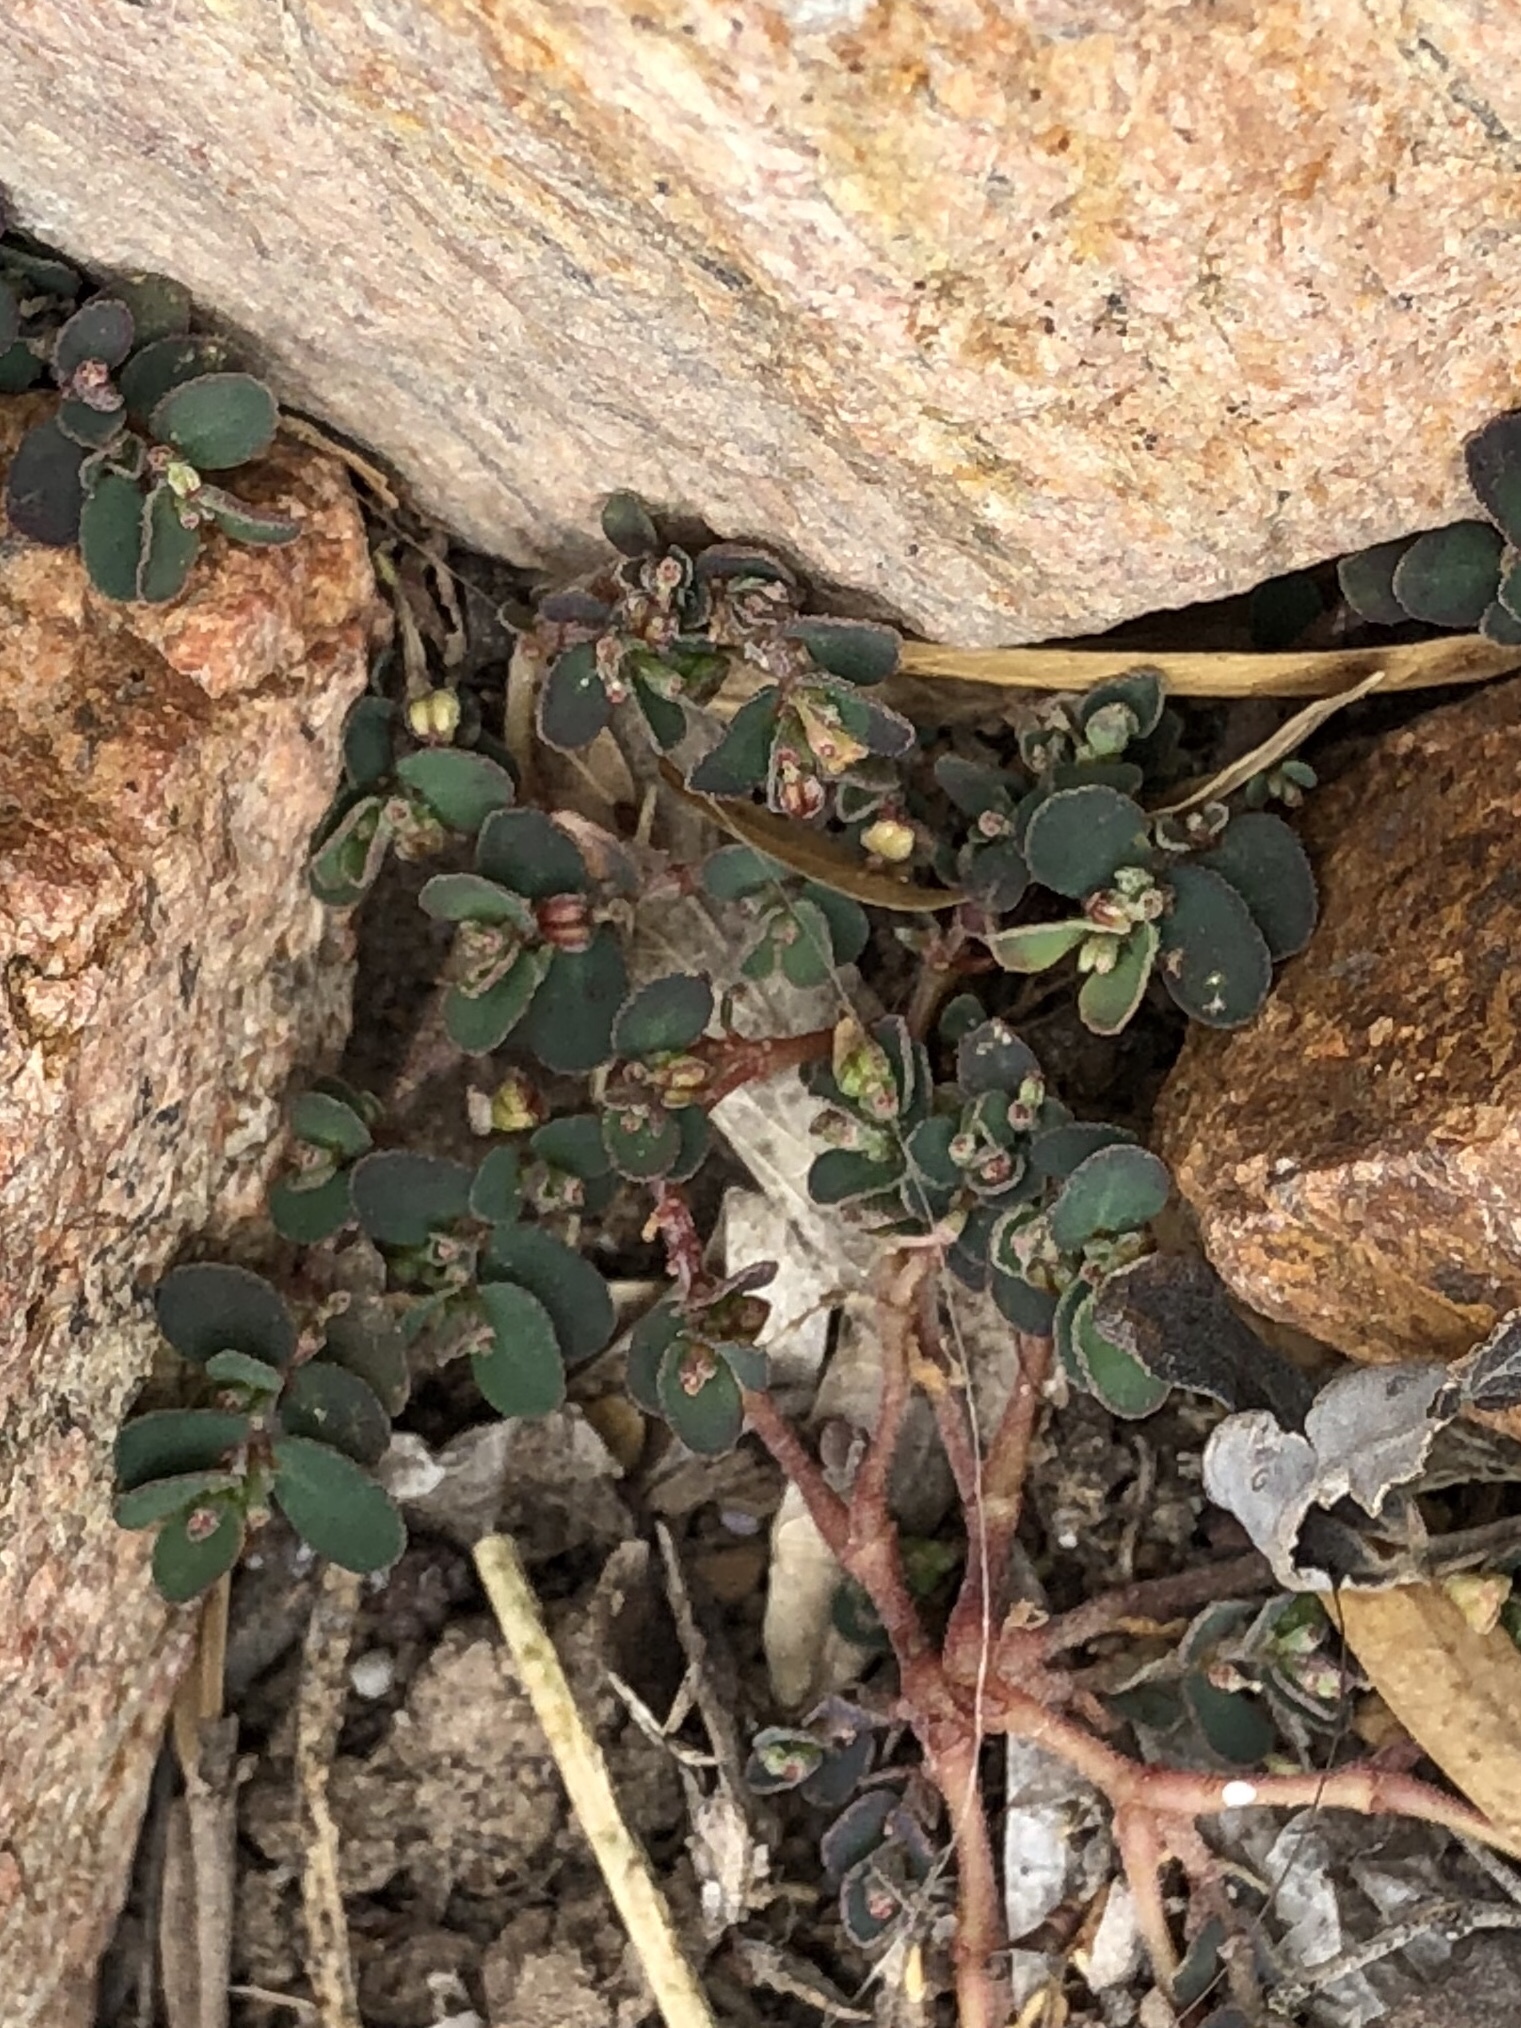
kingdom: Plantae
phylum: Tracheophyta
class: Magnoliopsida
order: Malpighiales
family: Euphorbiaceae
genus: Euphorbia
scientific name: Euphorbia prostrata
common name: Prostrate sandmat
